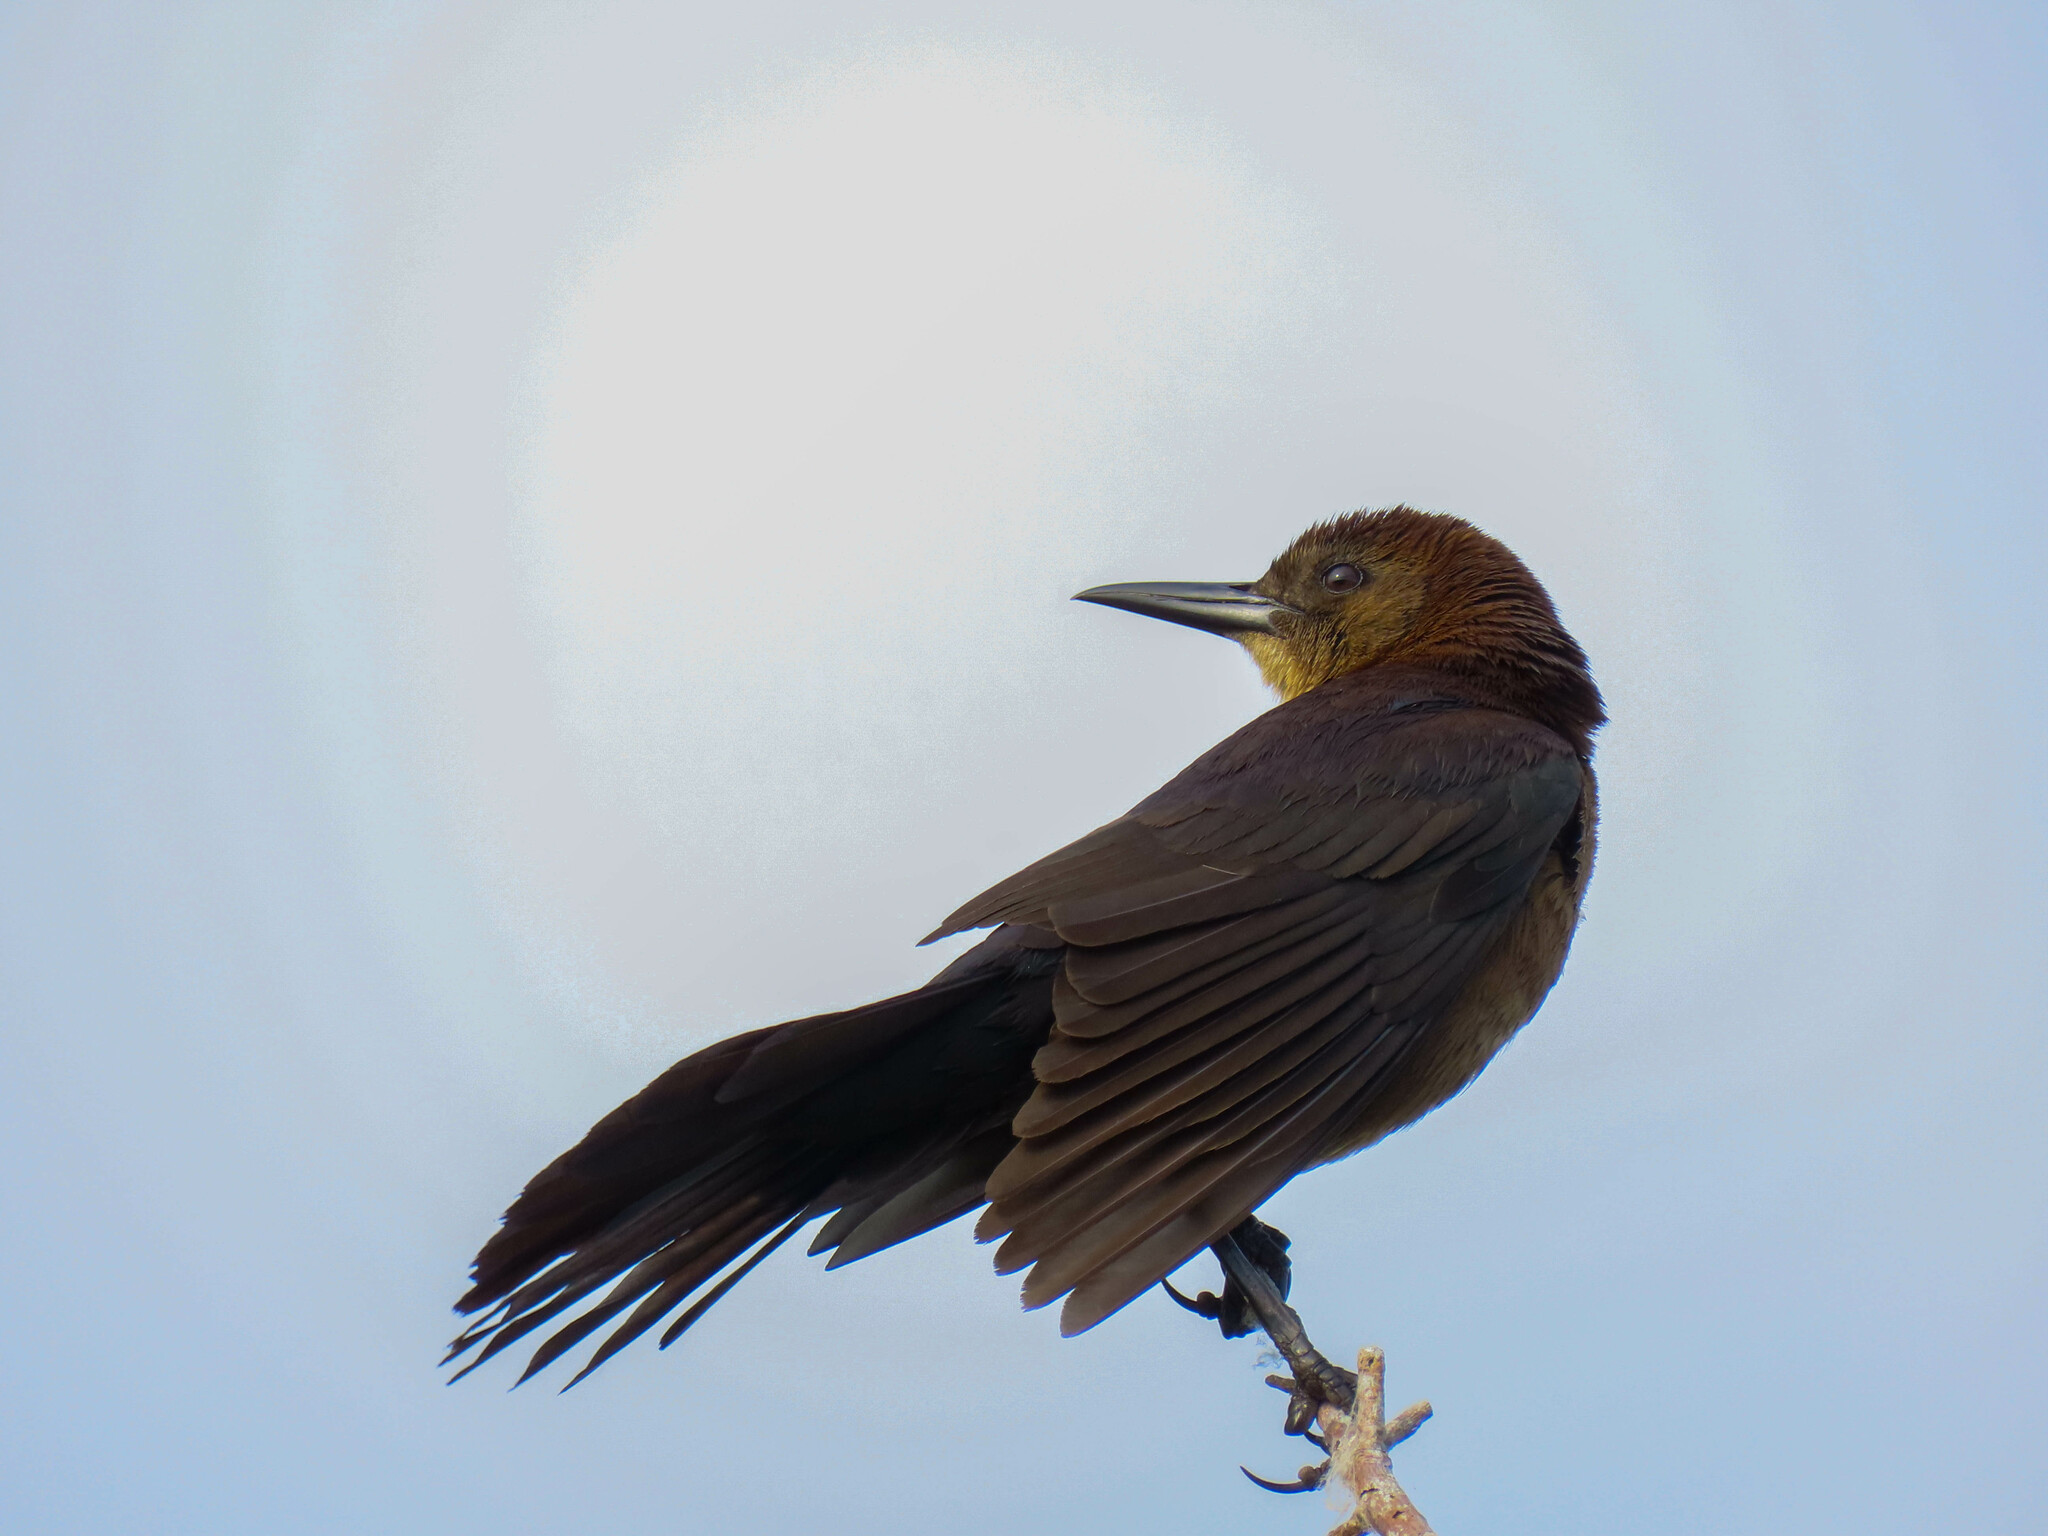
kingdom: Animalia
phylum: Chordata
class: Aves
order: Passeriformes
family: Icteridae
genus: Quiscalus
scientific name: Quiscalus major
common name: Boat-tailed grackle
